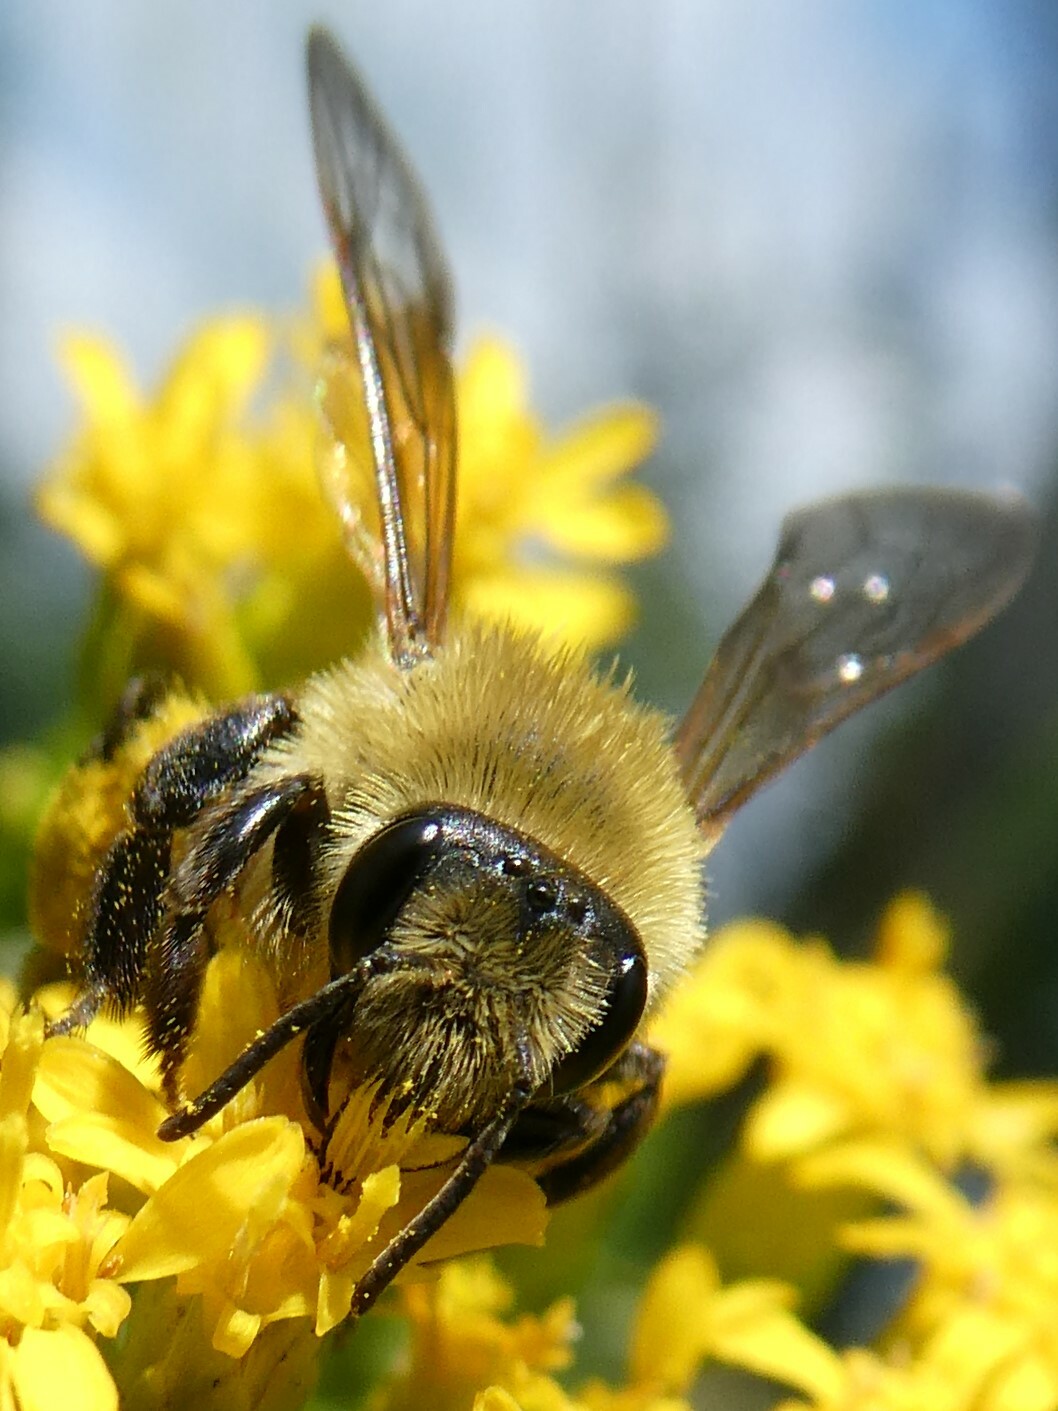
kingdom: Animalia
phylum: Arthropoda
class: Insecta
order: Hymenoptera
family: Andrenidae
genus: Andrena
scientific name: Andrena hirticincta
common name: Hairy-banded mining bee
